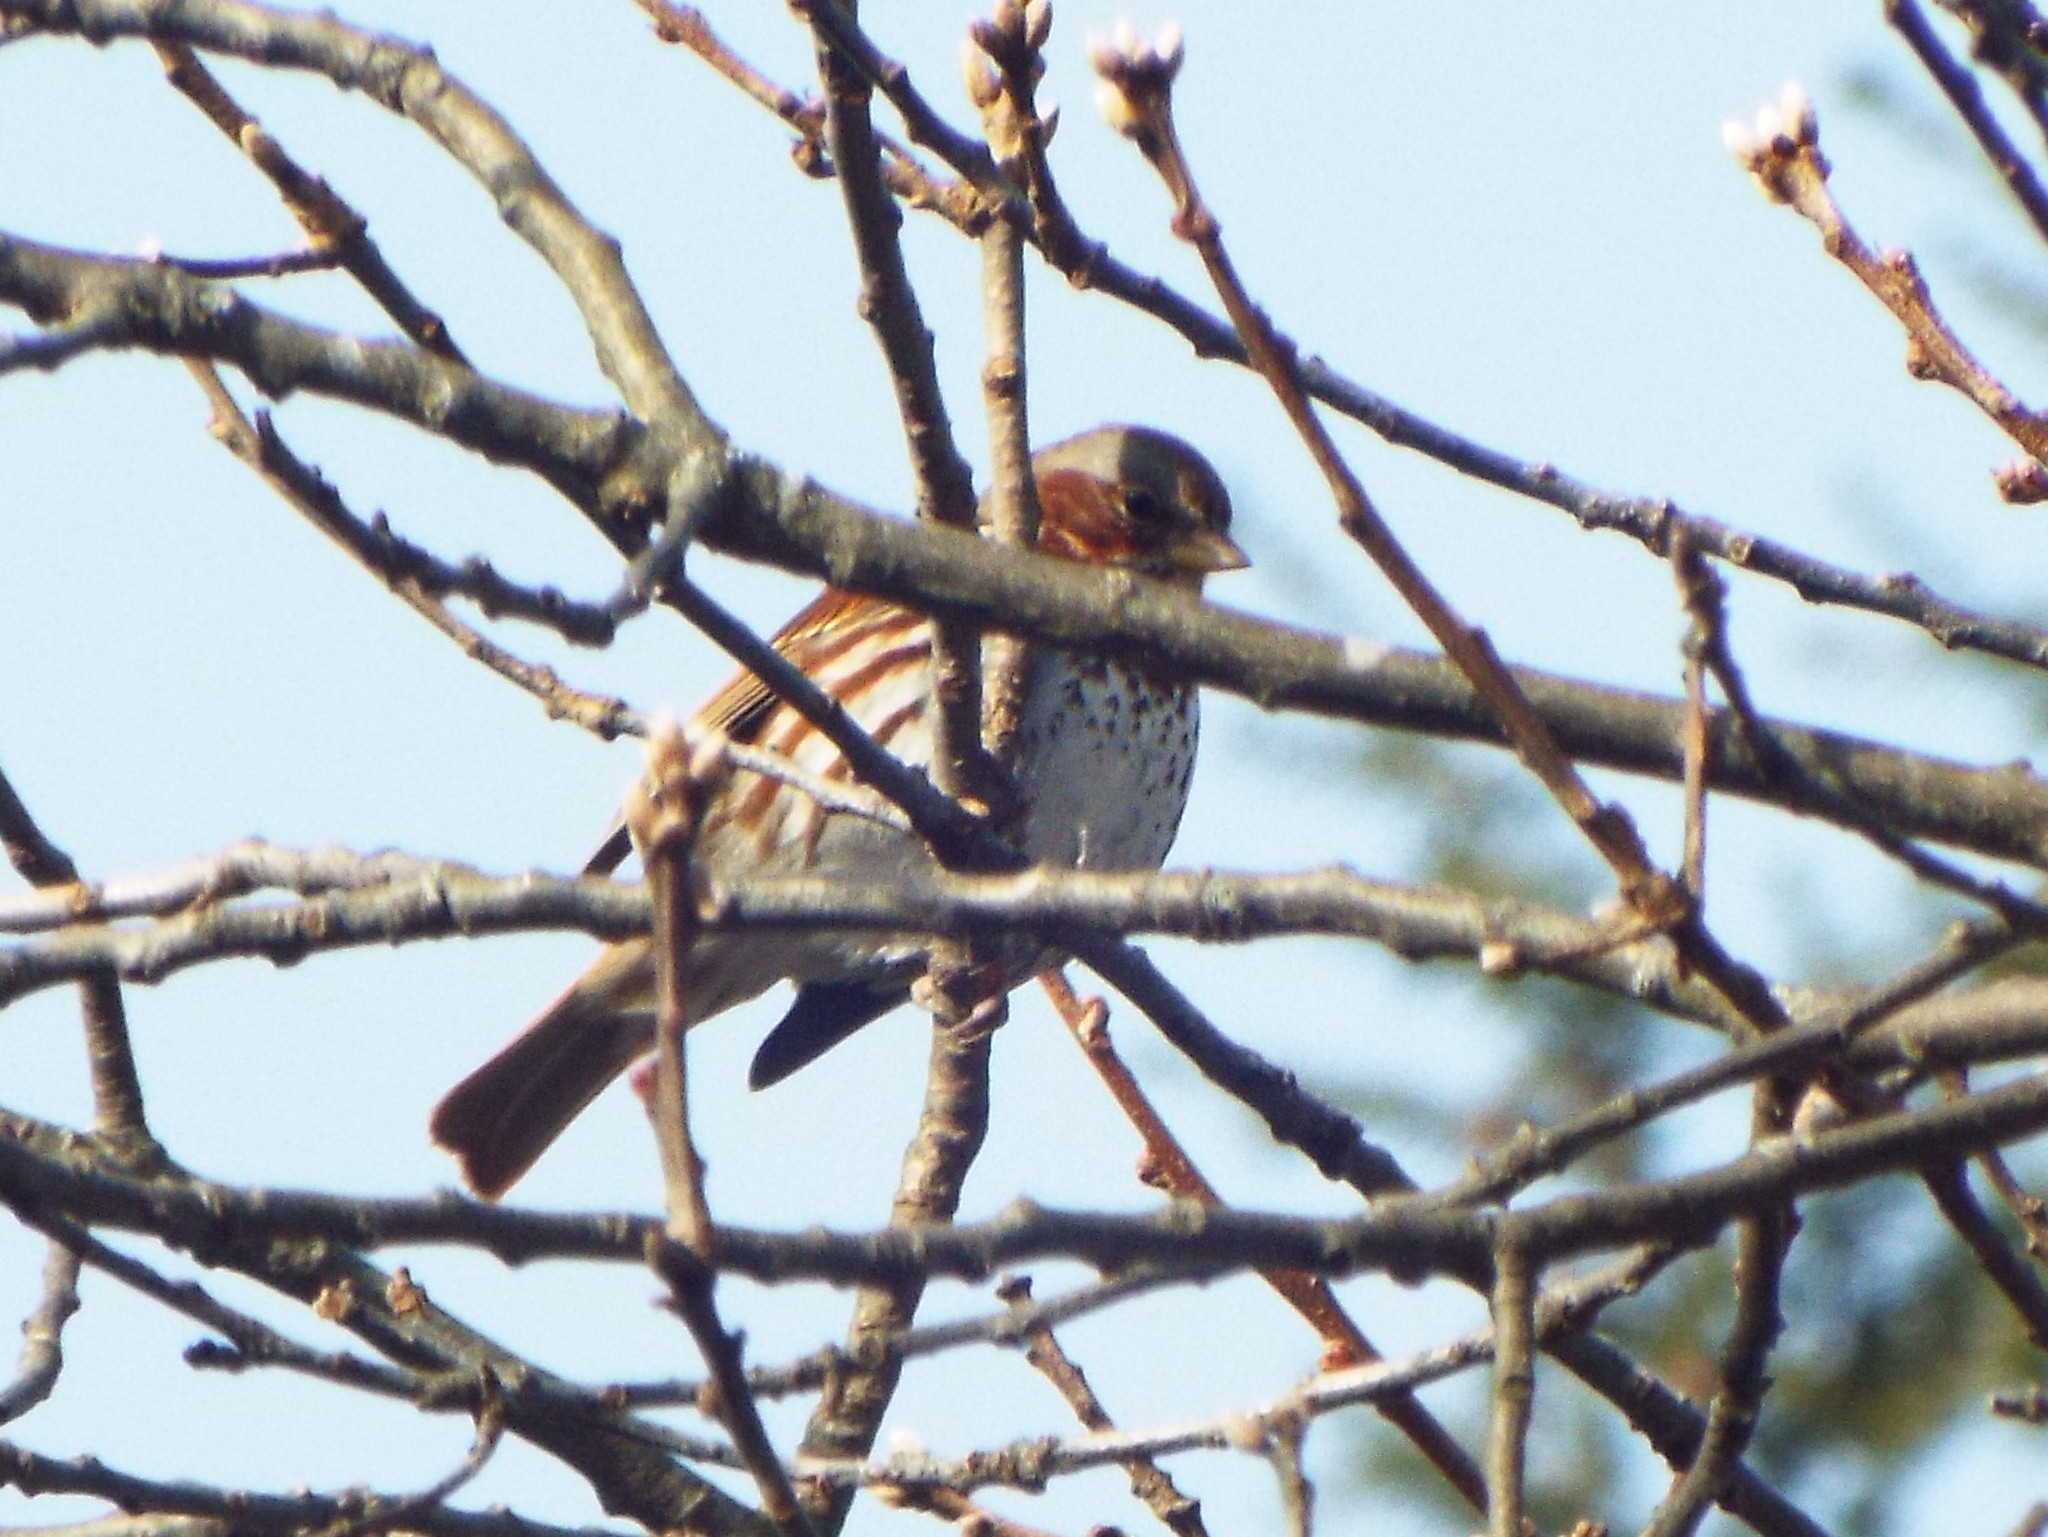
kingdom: Animalia
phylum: Chordata
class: Aves
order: Passeriformes
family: Passerellidae
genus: Passerella
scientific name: Passerella iliaca
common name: Fox sparrow
